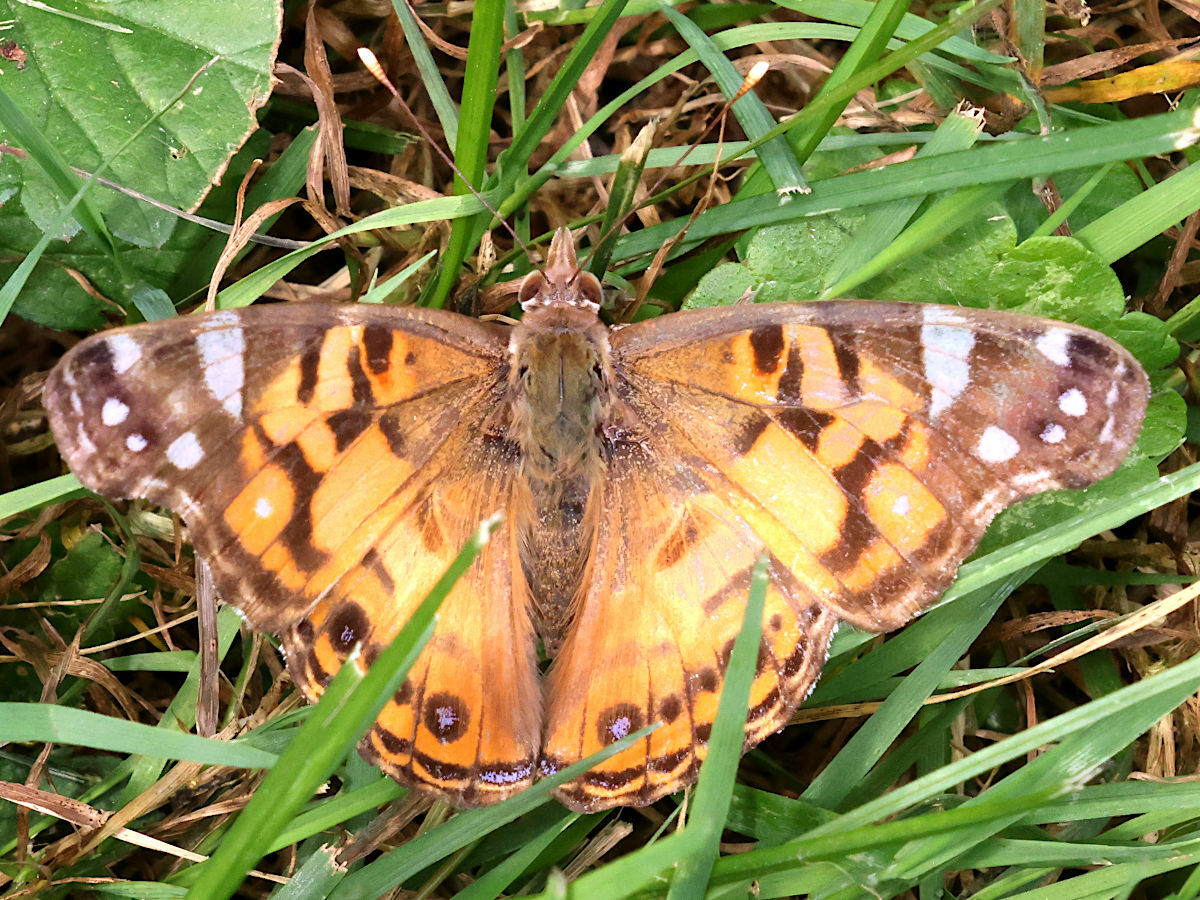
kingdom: Animalia
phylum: Arthropoda
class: Insecta
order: Lepidoptera
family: Nymphalidae
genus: Vanessa
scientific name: Vanessa virginiensis
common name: American lady
